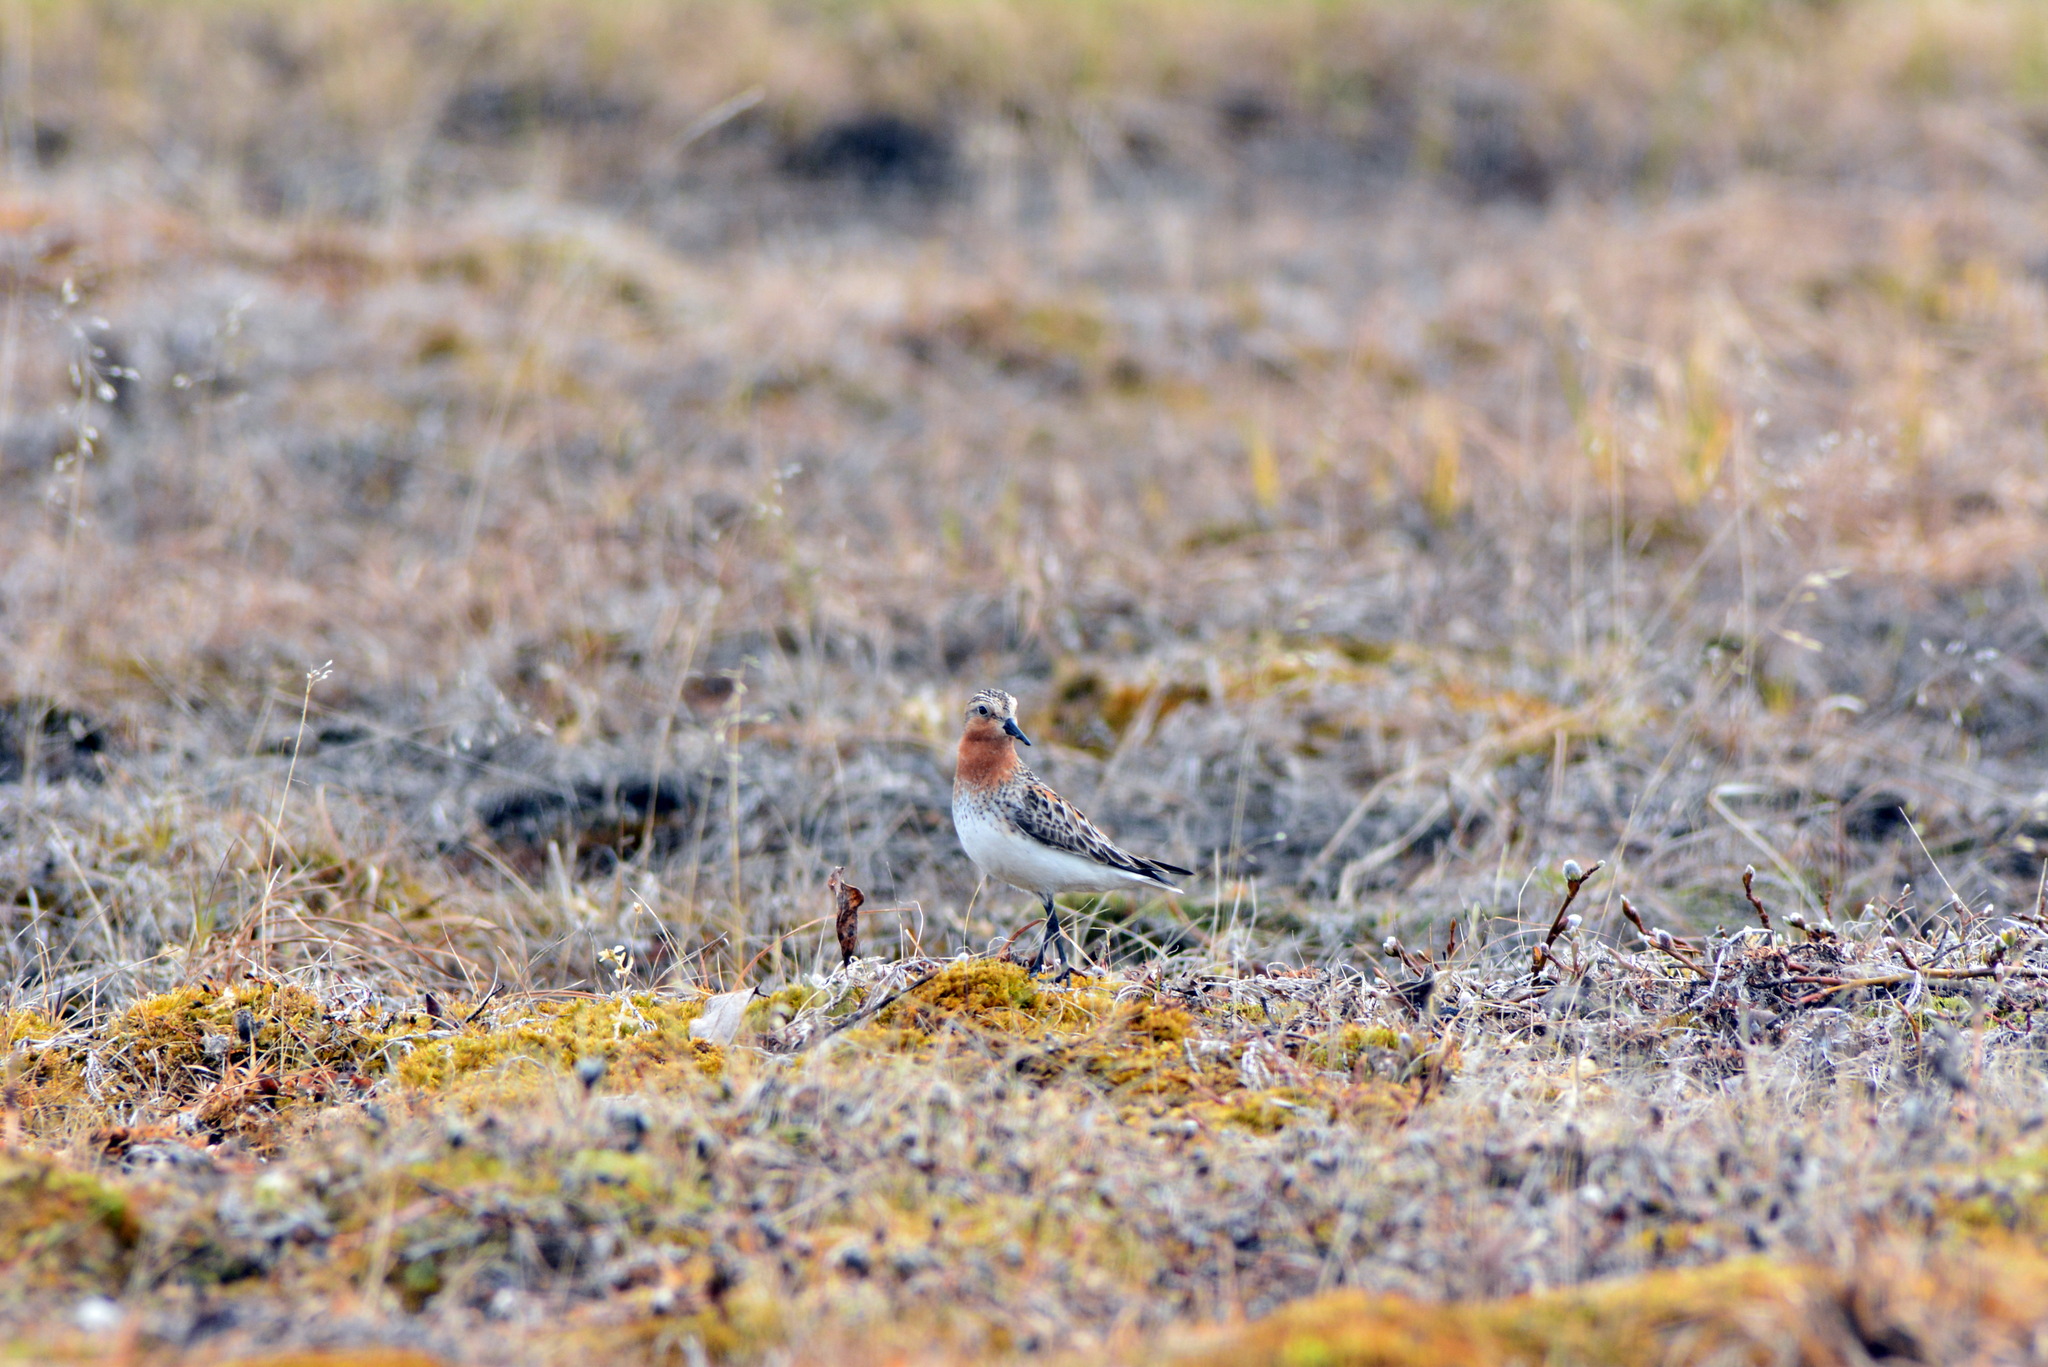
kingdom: Animalia
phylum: Chordata
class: Aves
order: Charadriiformes
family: Scolopacidae
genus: Calidris
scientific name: Calidris ruficollis
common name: Red-necked stint
